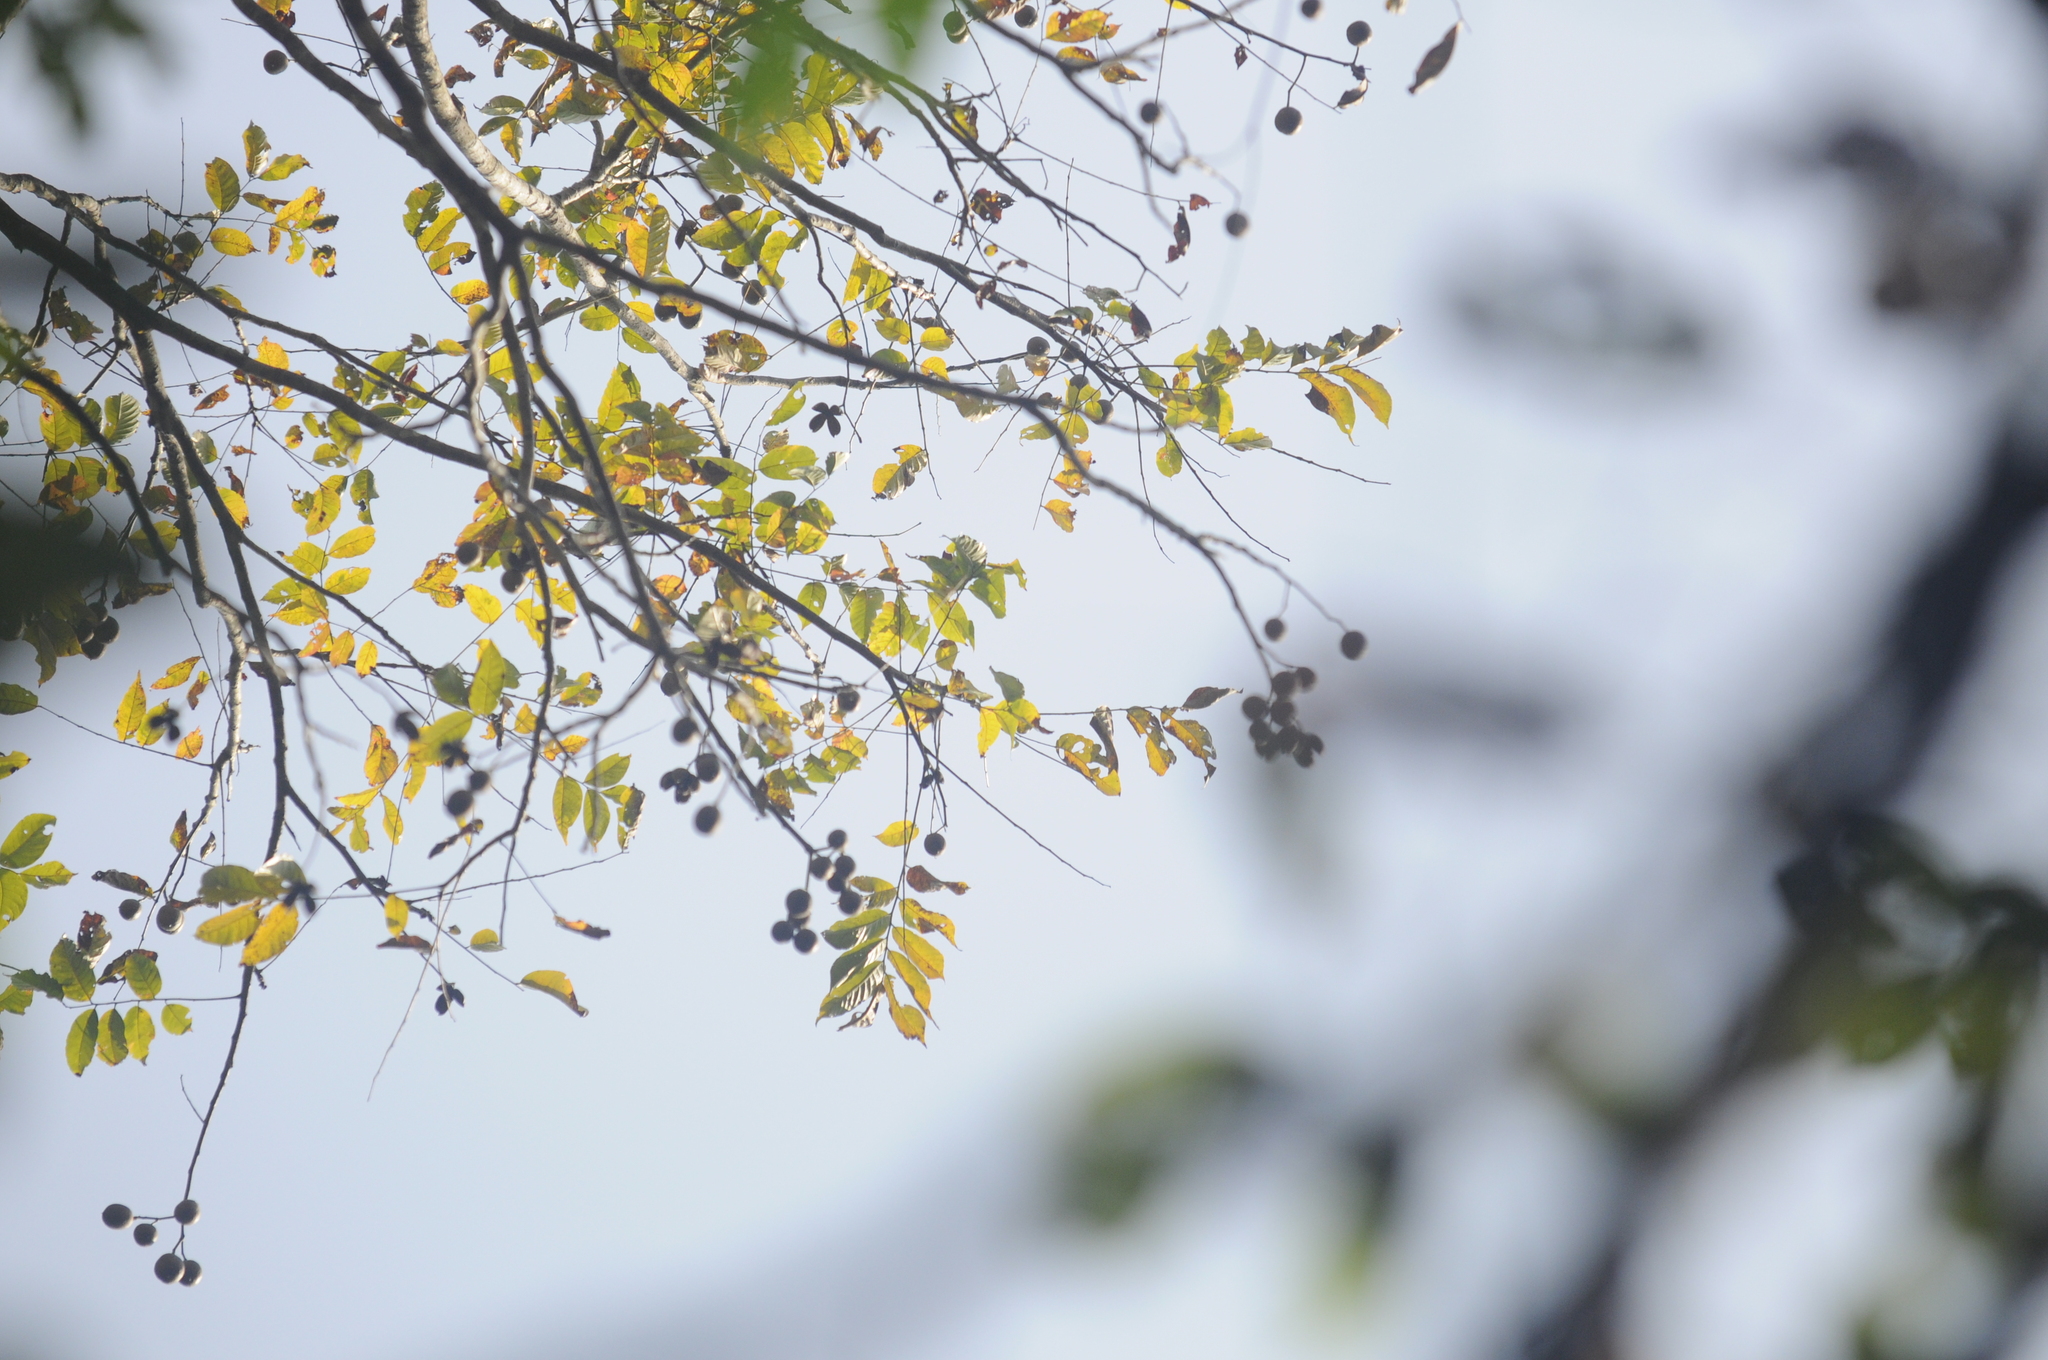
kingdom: Plantae
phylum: Tracheophyta
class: Magnoliopsida
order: Sapindales
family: Meliaceae
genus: Chukrasia
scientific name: Chukrasia tabularis
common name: Chittagong wood
